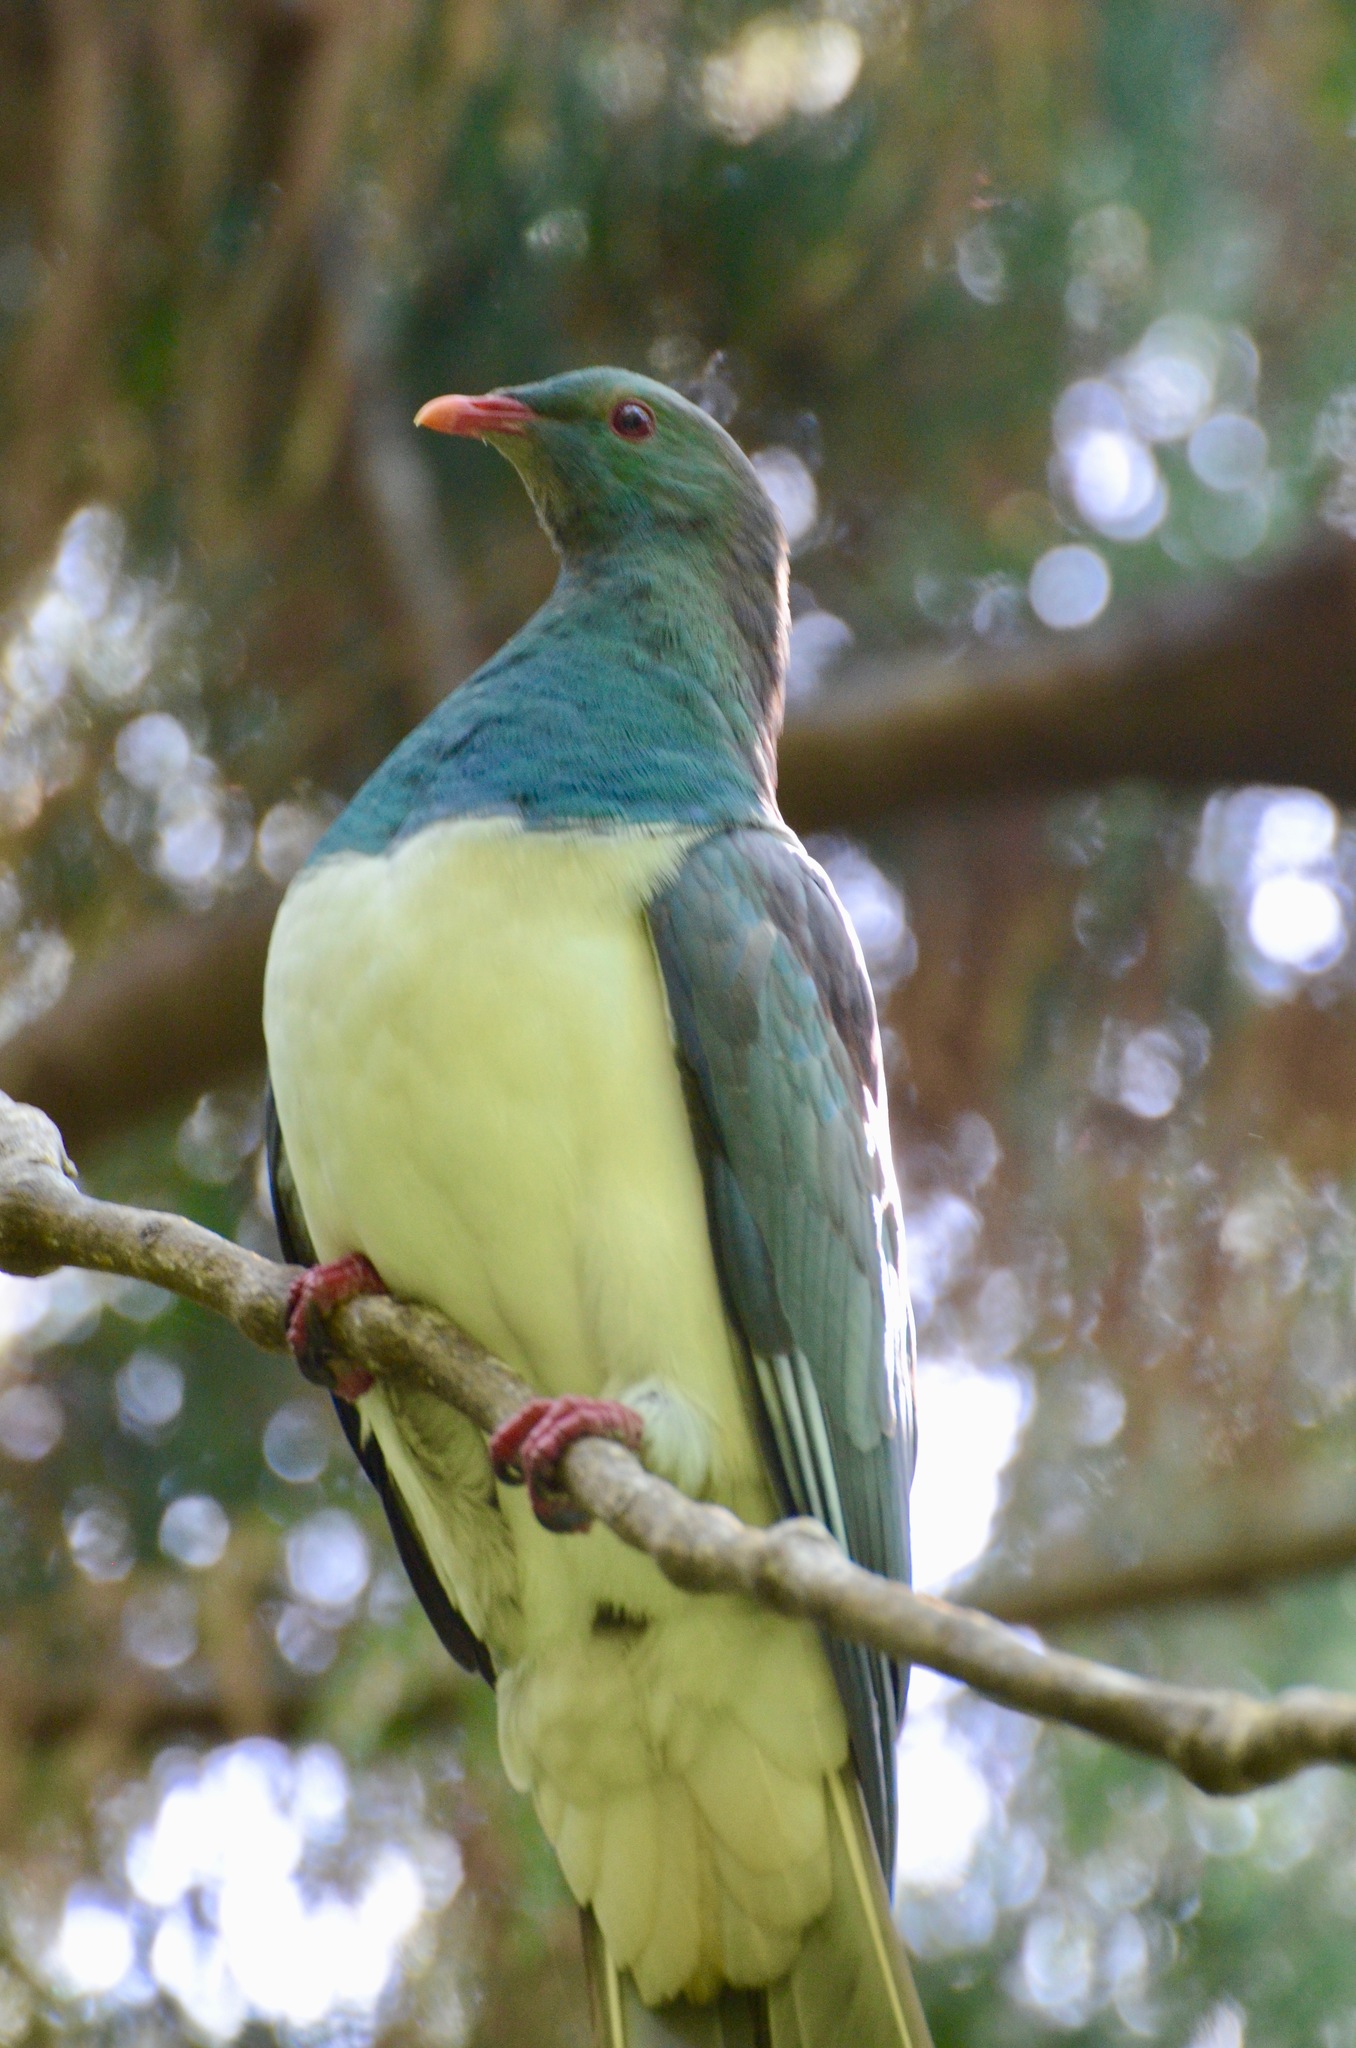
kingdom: Animalia
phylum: Chordata
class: Aves
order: Columbiformes
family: Columbidae
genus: Hemiphaga
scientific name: Hemiphaga novaeseelandiae
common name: New zealand pigeon
